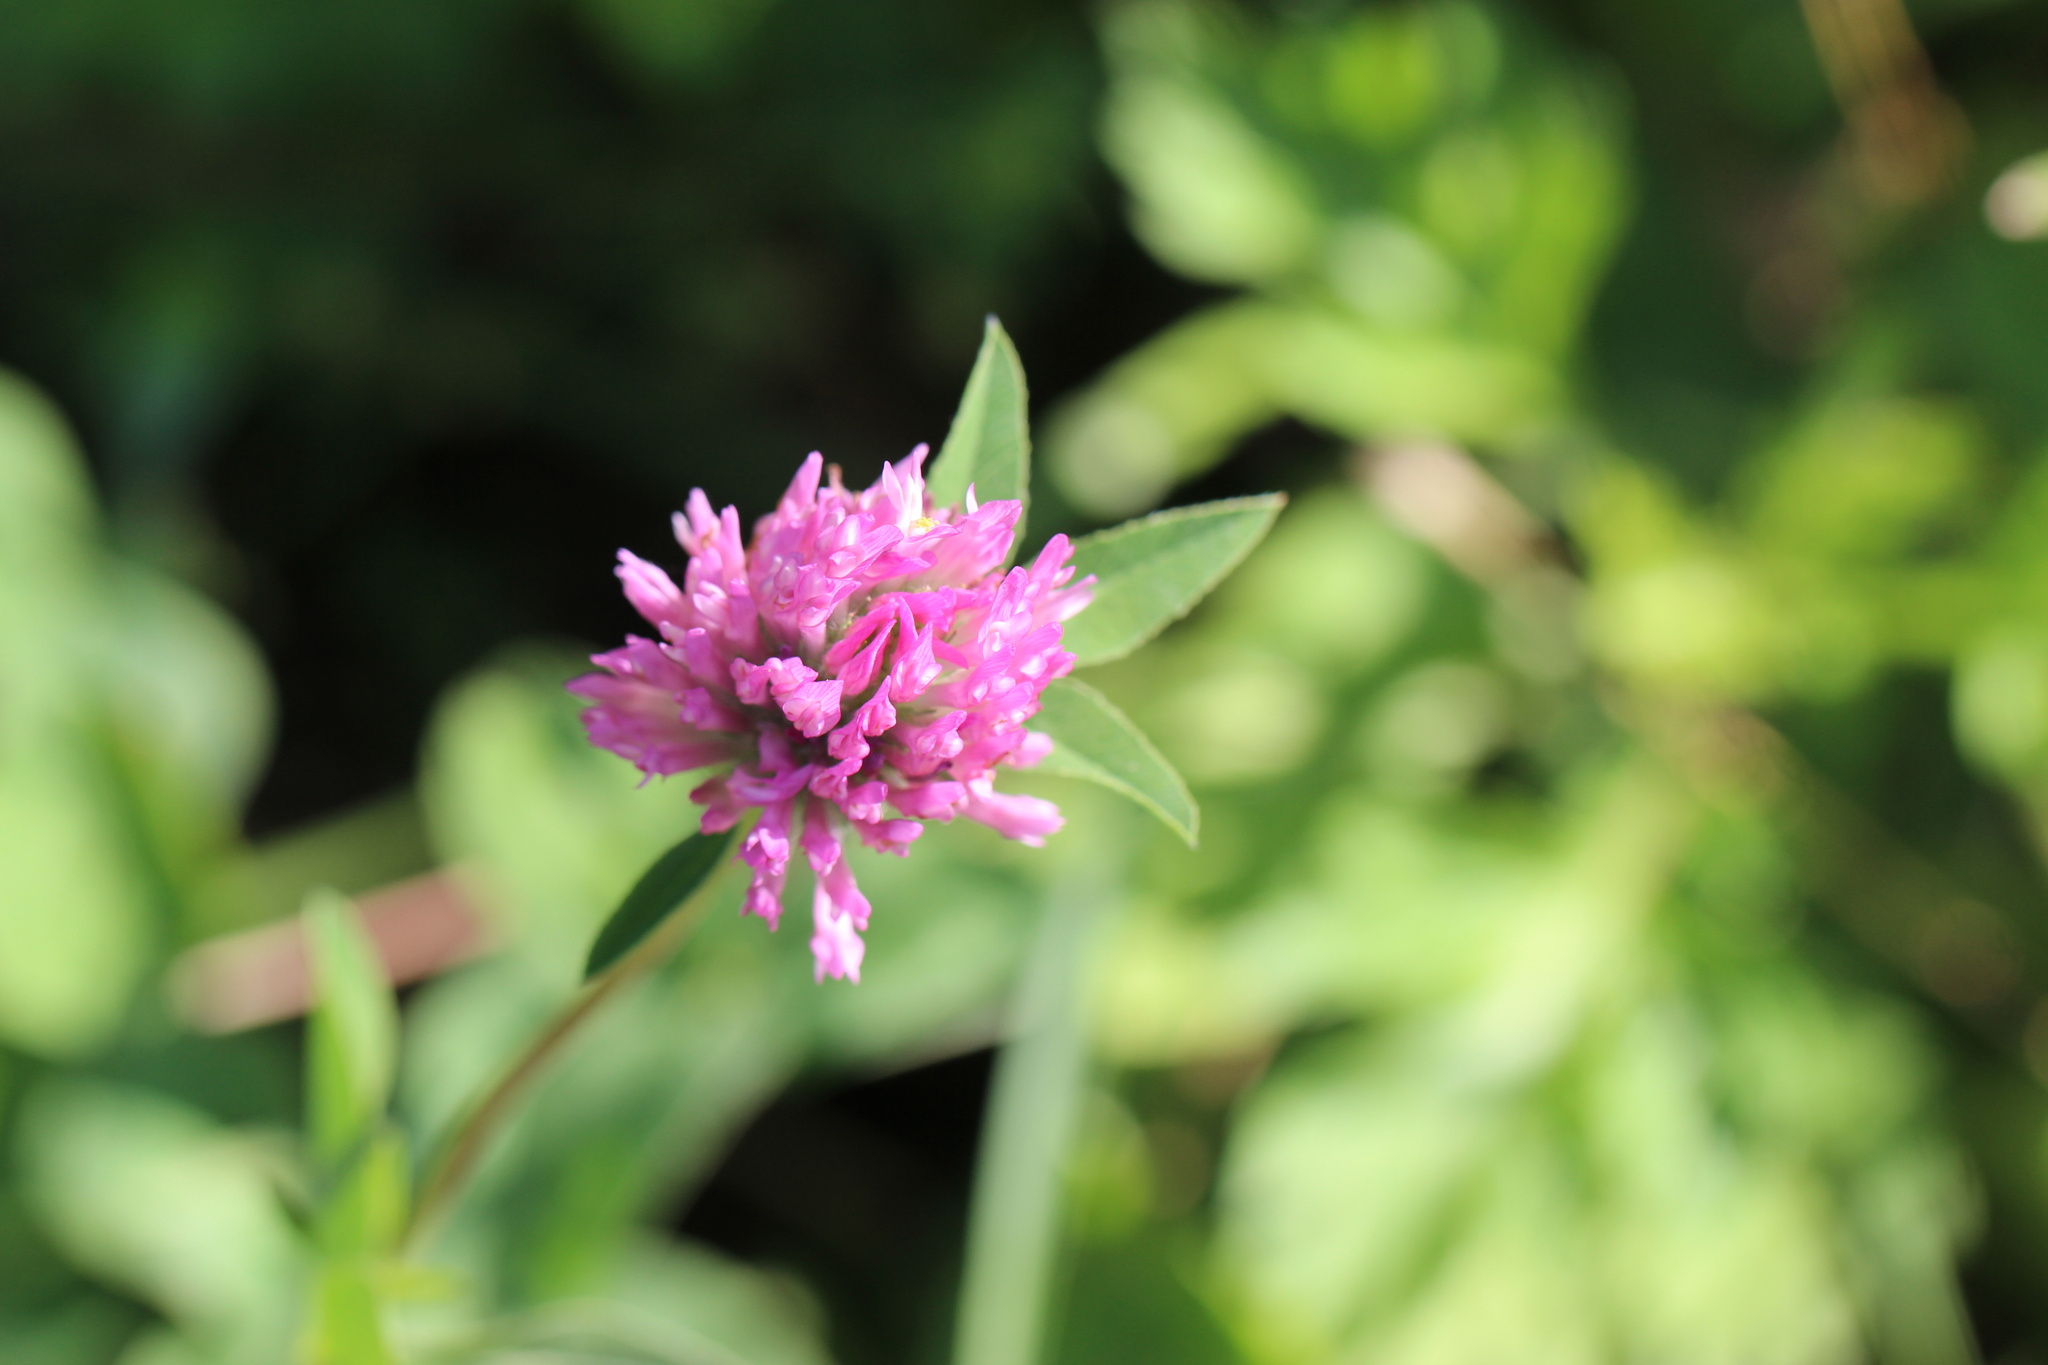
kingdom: Plantae
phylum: Tracheophyta
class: Magnoliopsida
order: Fabales
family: Fabaceae
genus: Trifolium
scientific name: Trifolium pratense
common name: Red clover
